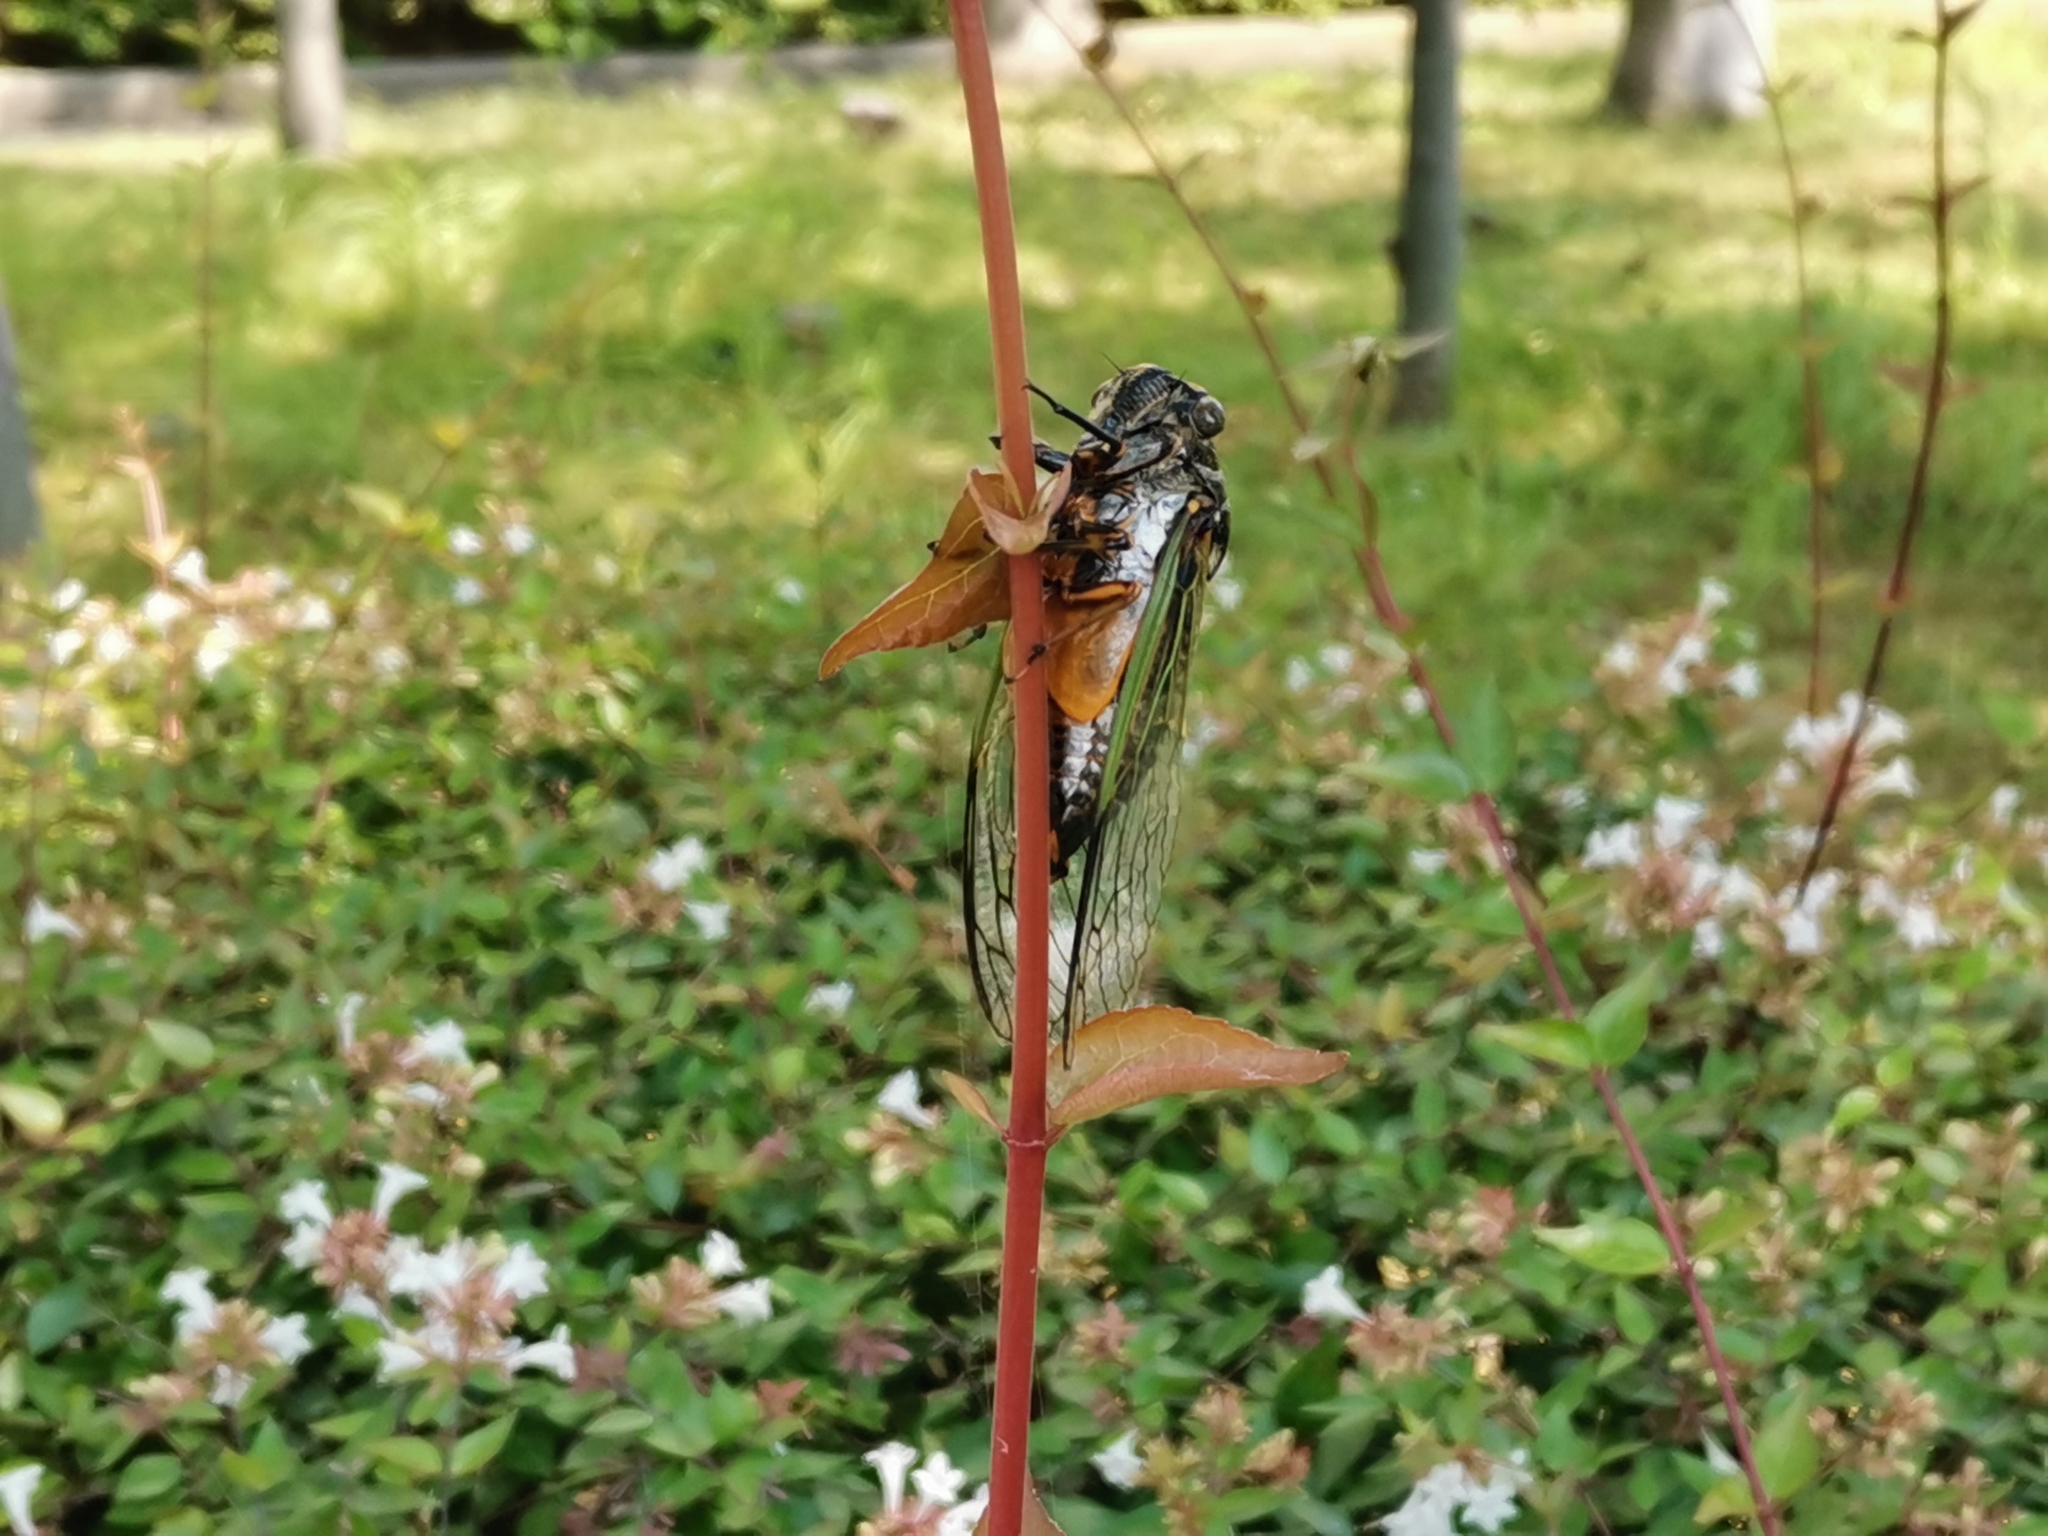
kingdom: Animalia
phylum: Arthropoda
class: Insecta
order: Hemiptera
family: Cicadidae
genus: Cryptotympana
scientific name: Cryptotympana facialis
